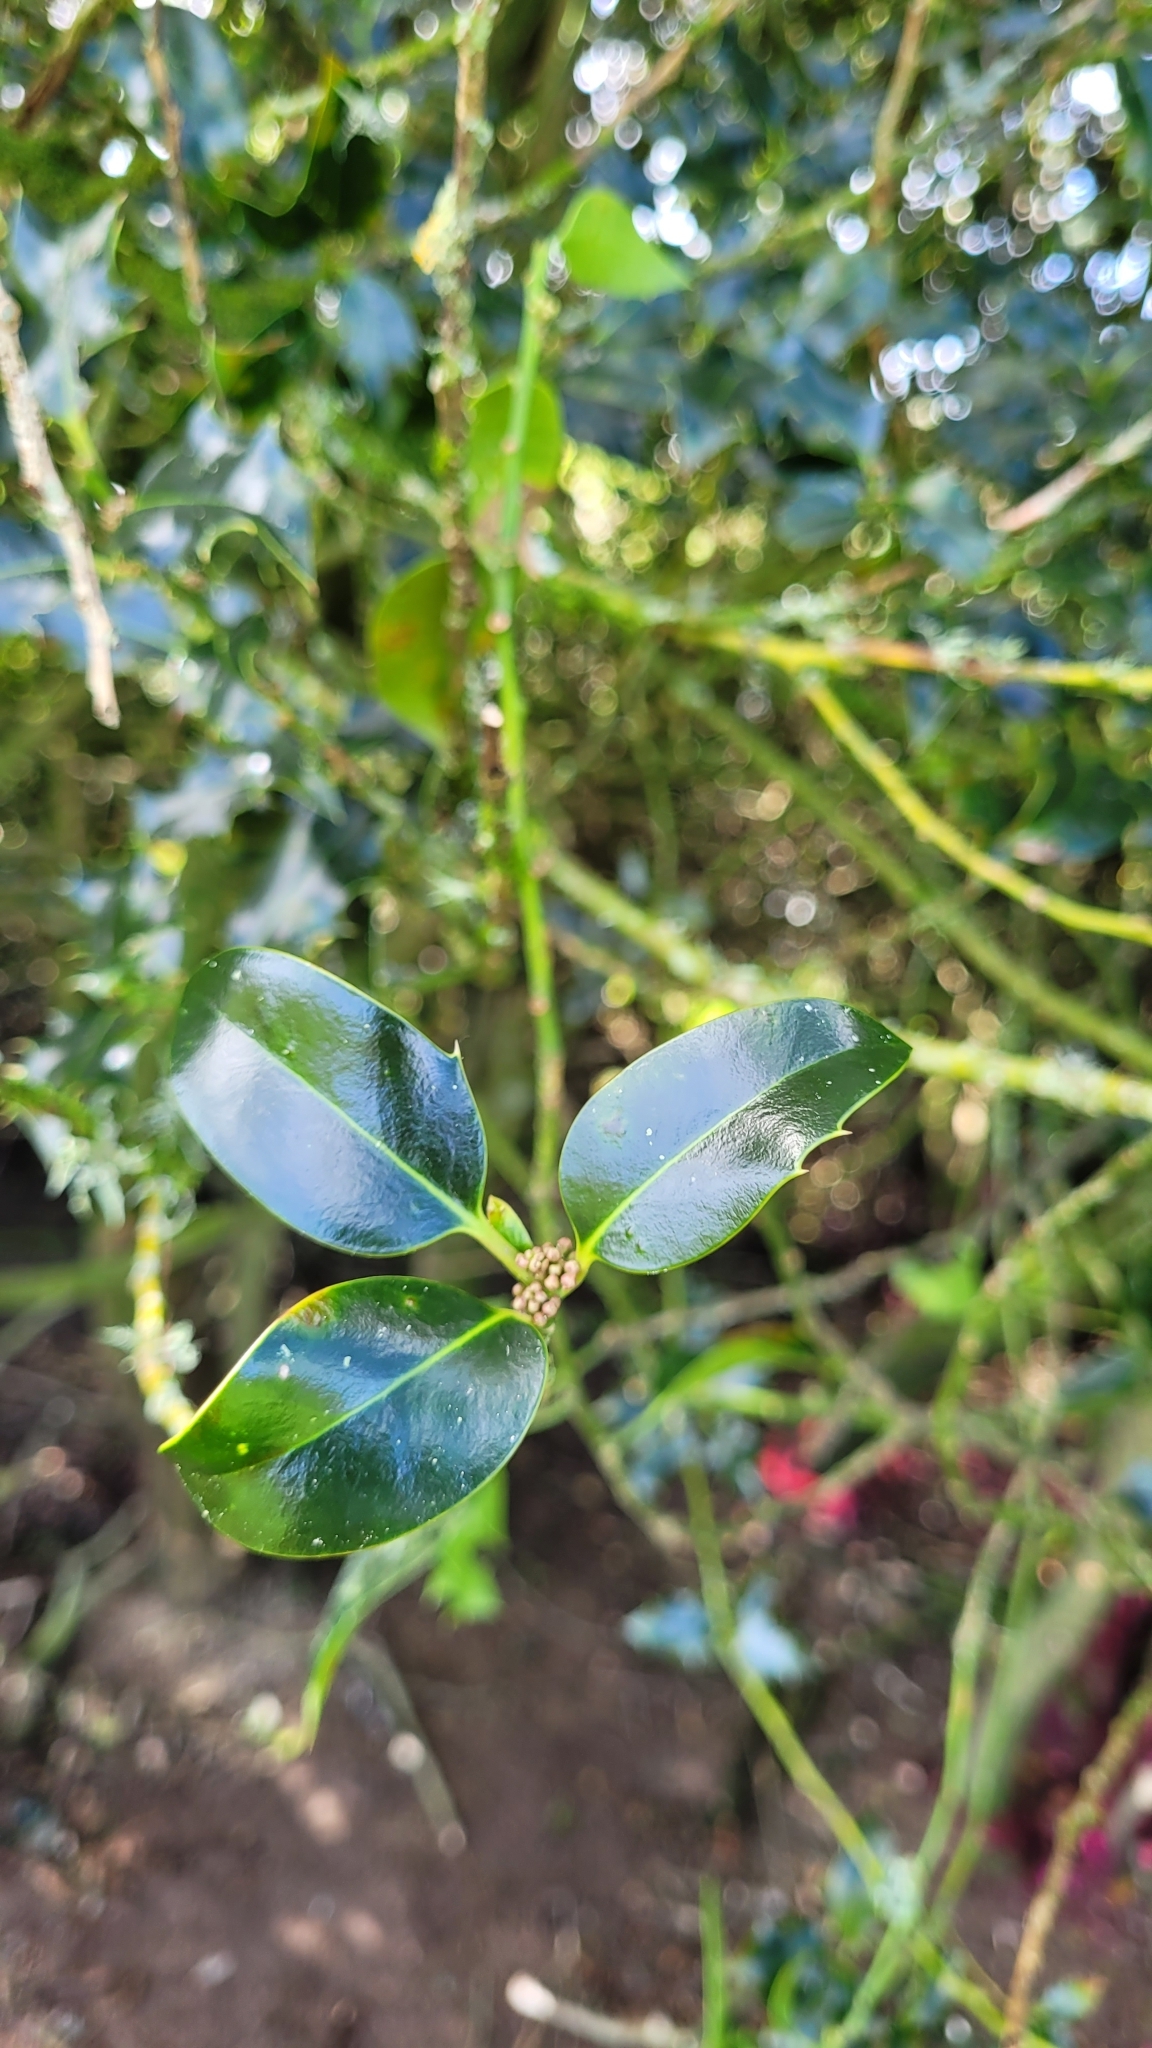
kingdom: Plantae
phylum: Tracheophyta
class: Magnoliopsida
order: Aquifoliales
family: Aquifoliaceae
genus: Ilex
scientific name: Ilex aquifolium
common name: English holly
